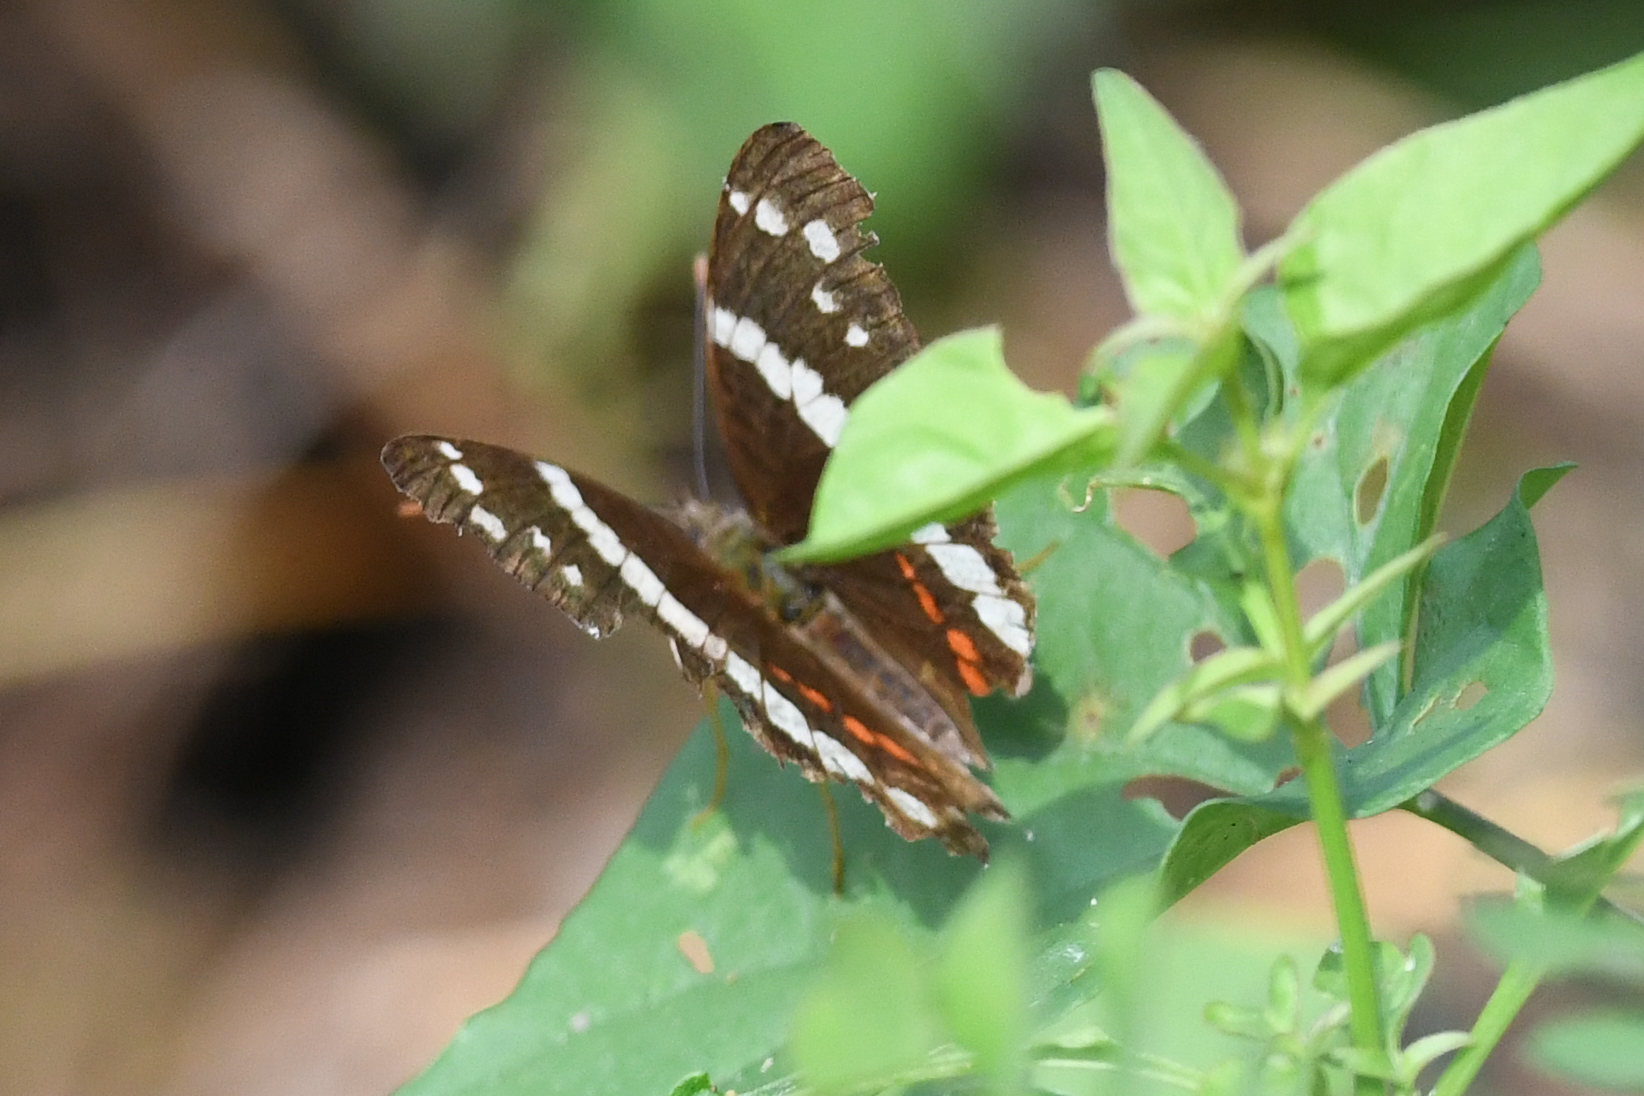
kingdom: Animalia
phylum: Arthropoda
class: Insecta
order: Lepidoptera
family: Nymphalidae
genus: Anartia
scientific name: Anartia fatima
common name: Banded peacock
